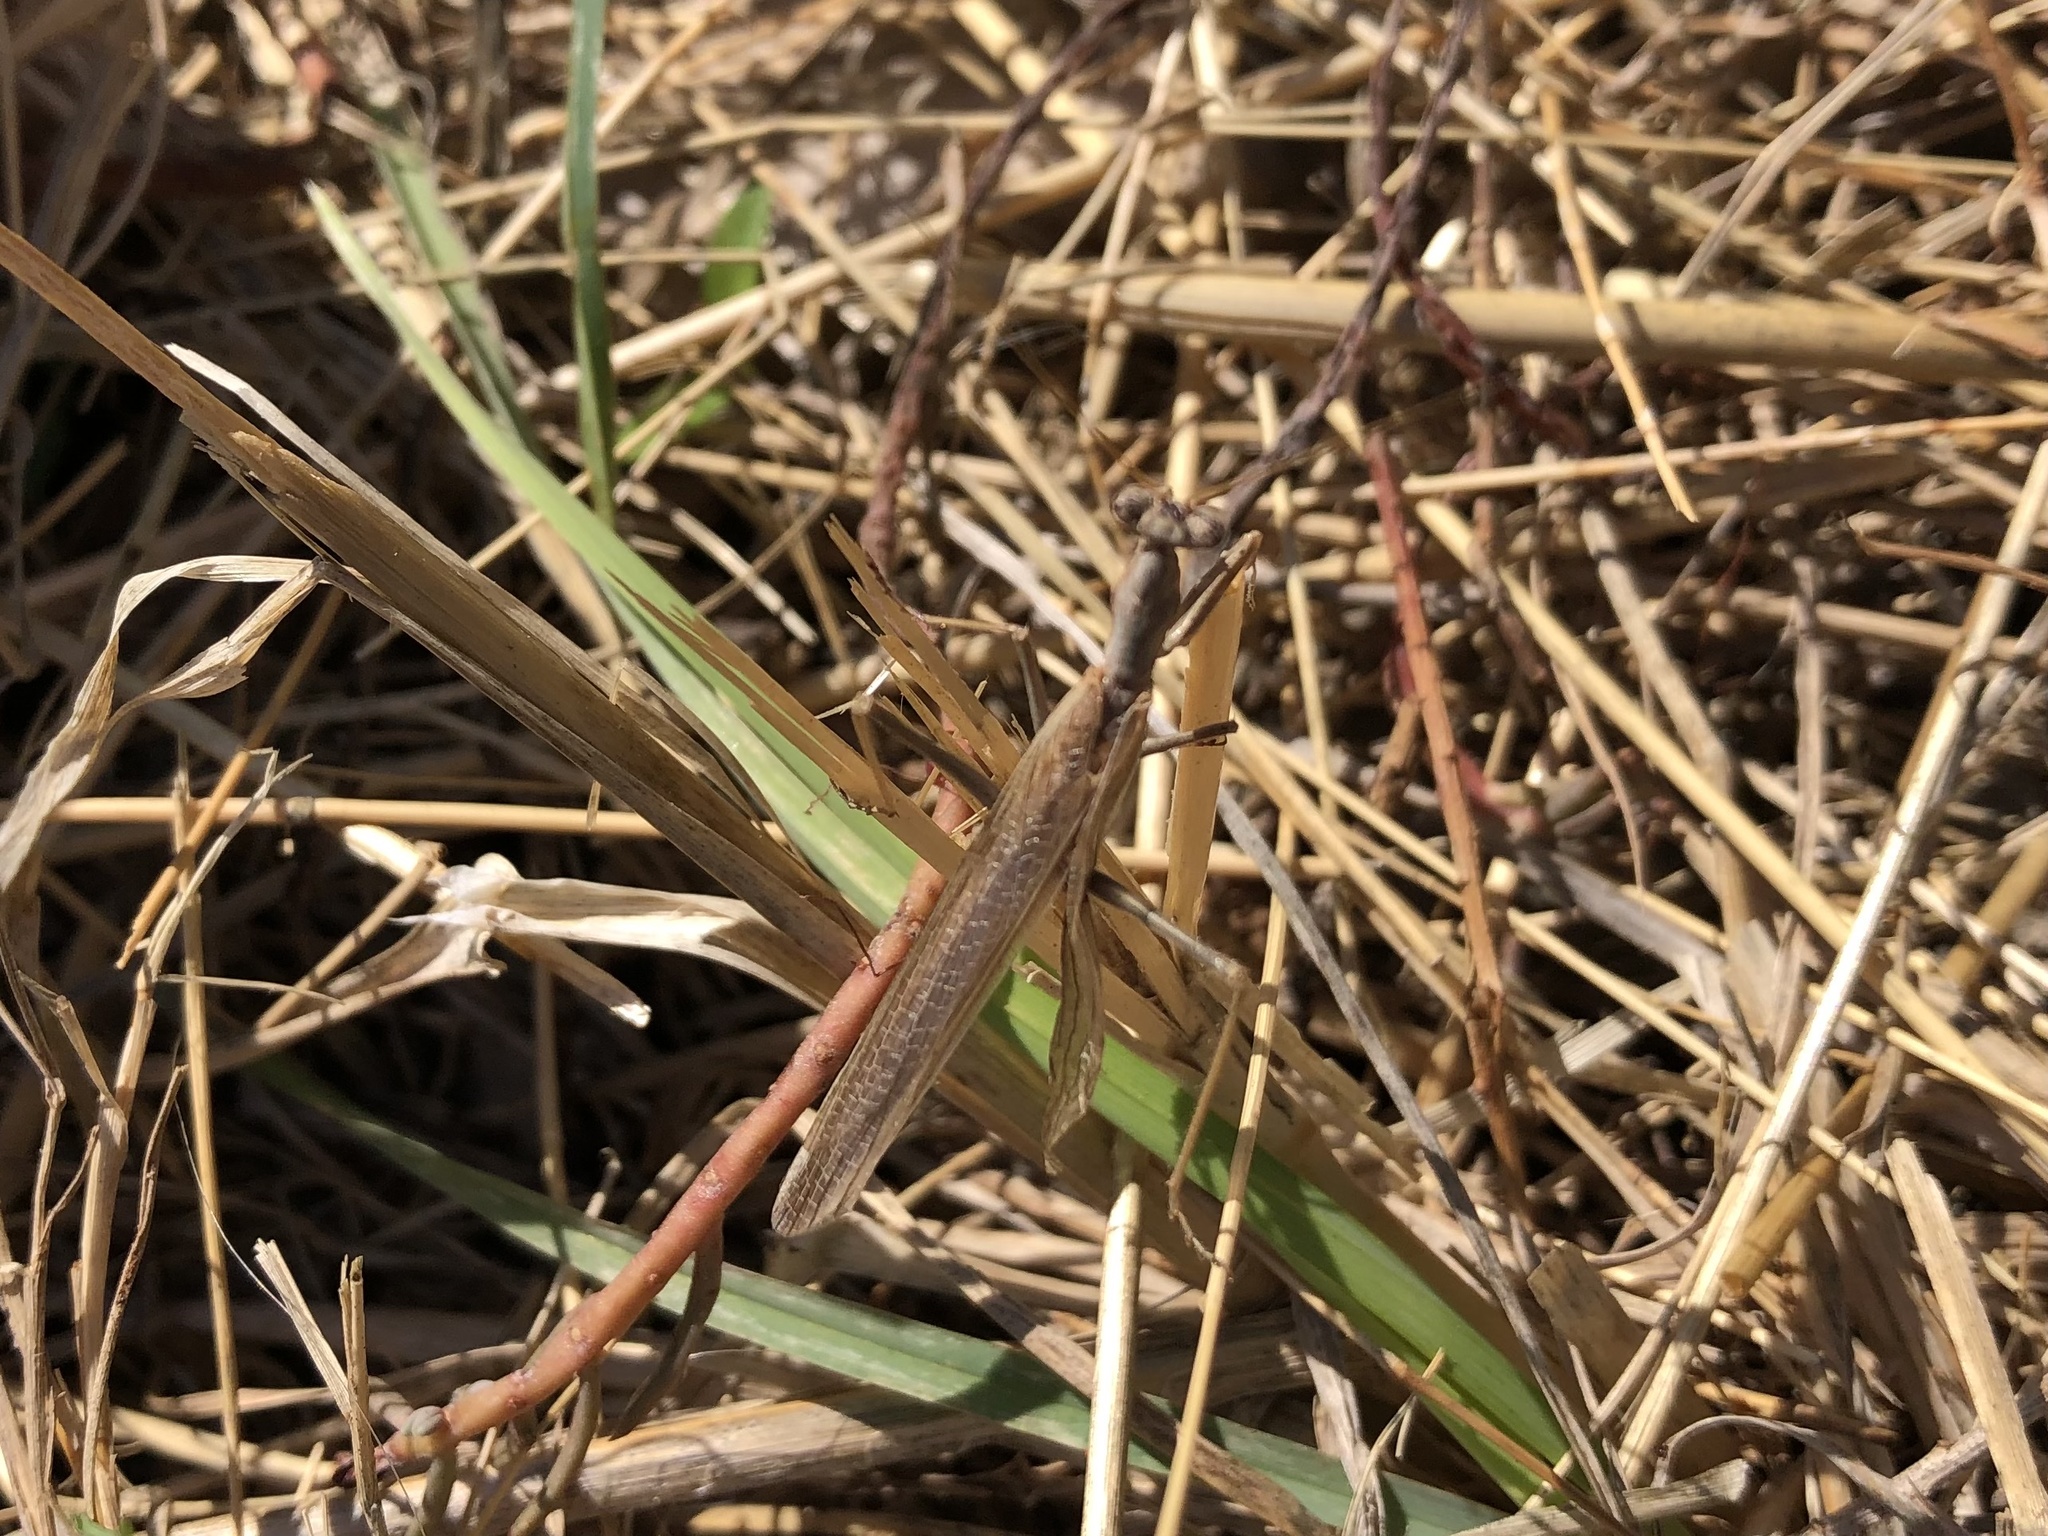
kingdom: Animalia
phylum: Arthropoda
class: Insecta
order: Mantodea
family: Amelidae
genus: Ameles
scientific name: Ameles decolor
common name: Dwarf mantis
